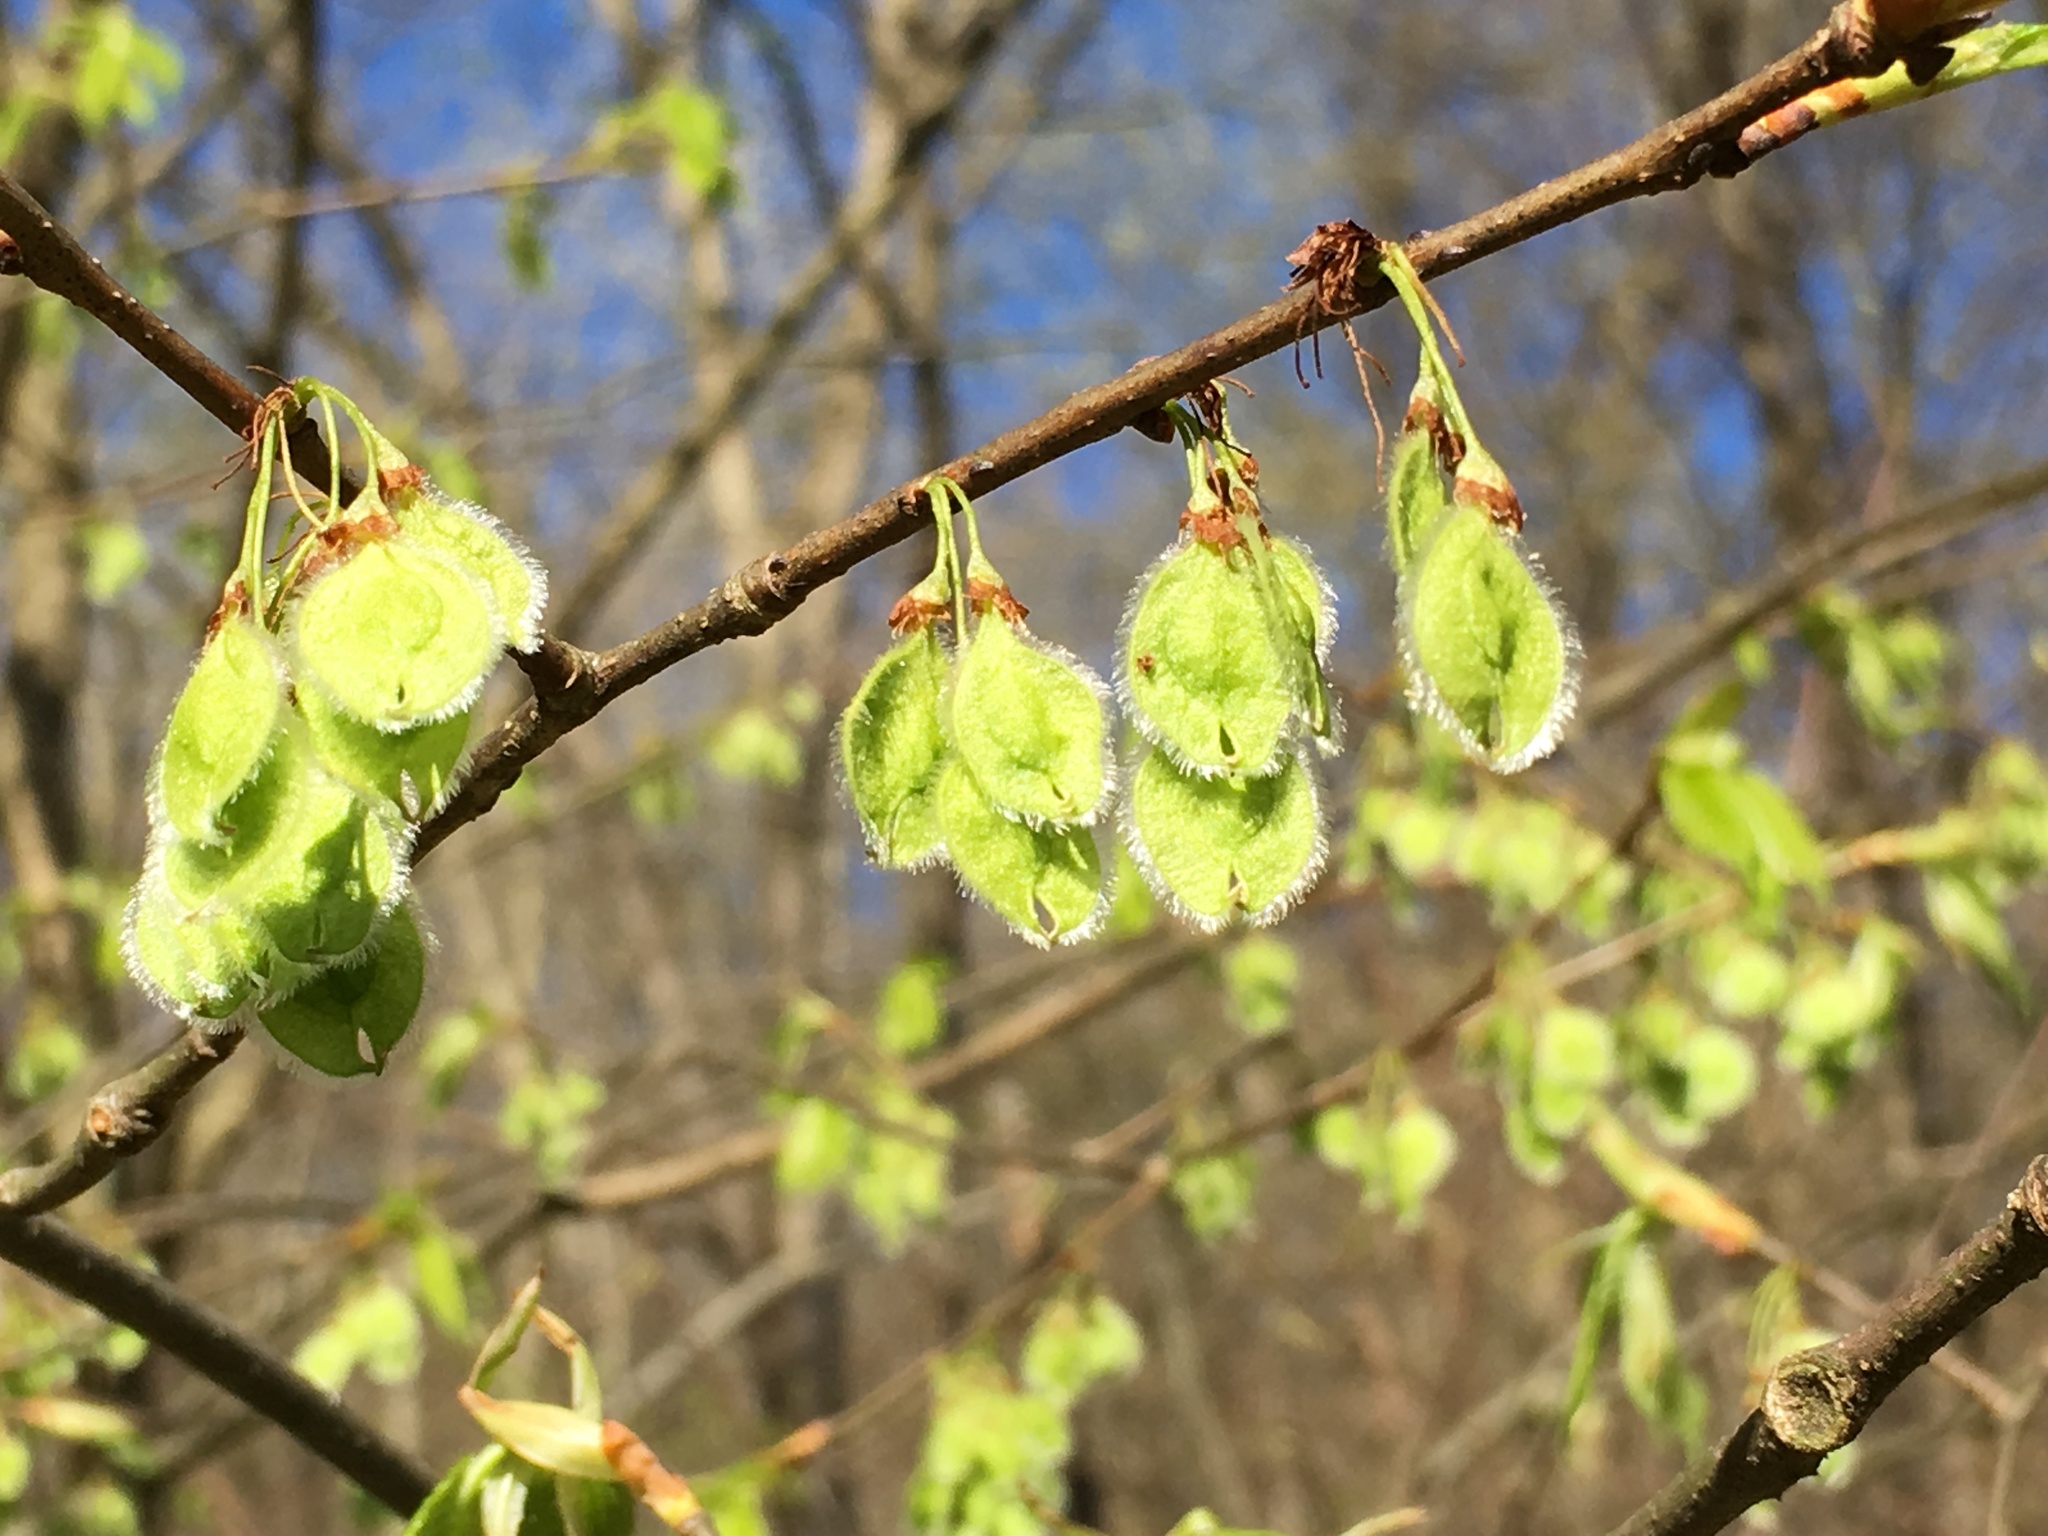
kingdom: Plantae
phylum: Tracheophyta
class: Magnoliopsida
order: Rosales
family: Ulmaceae
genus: Ulmus
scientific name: Ulmus americana
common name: American elm
